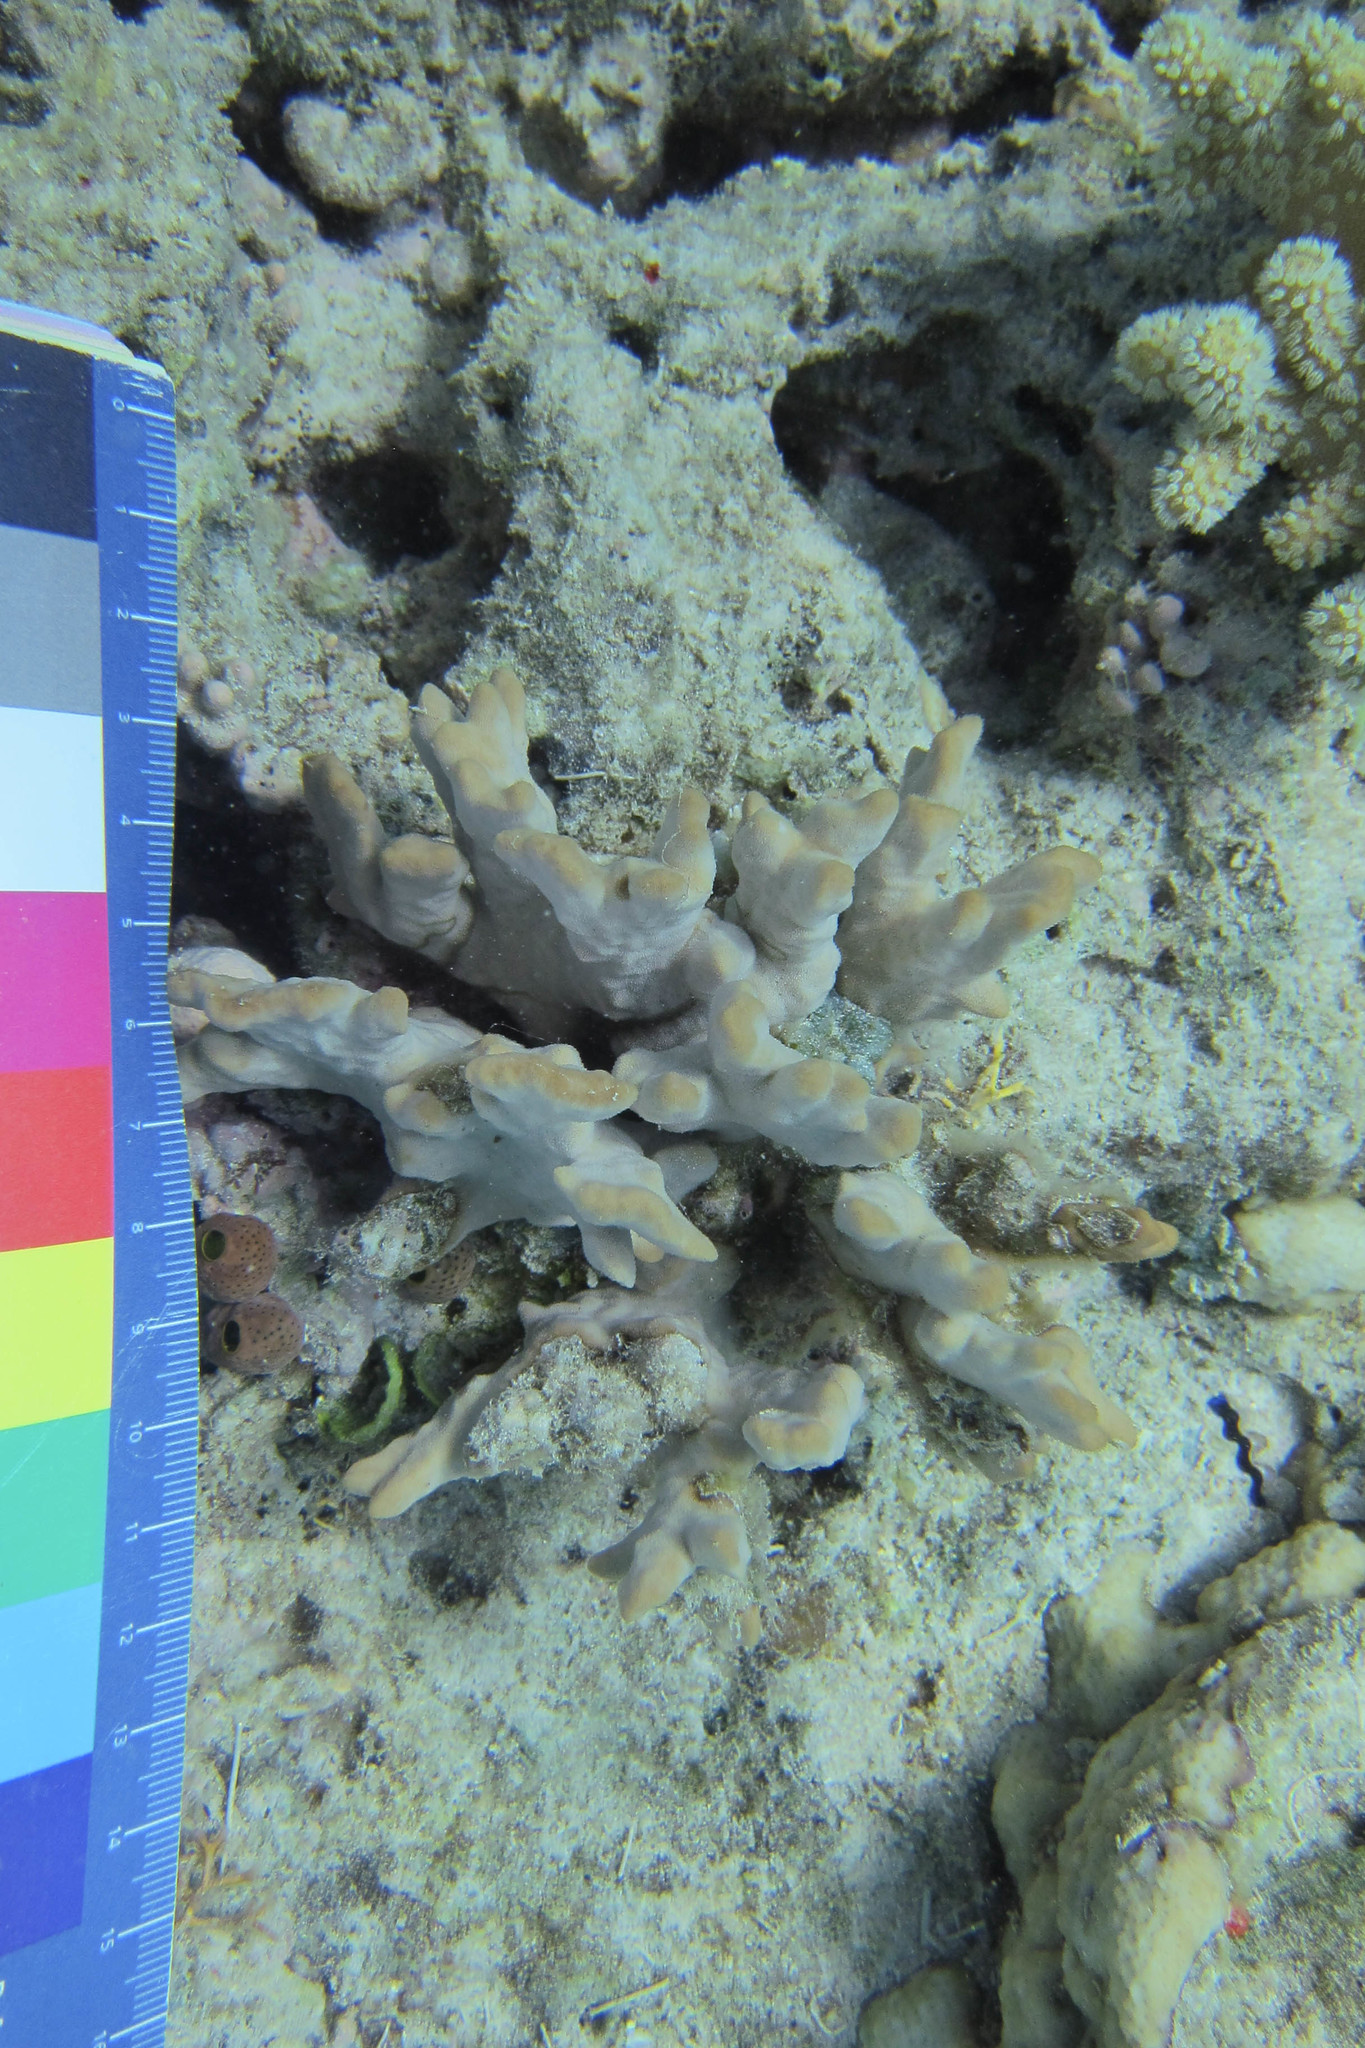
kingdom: Animalia
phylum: Cnidaria
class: Anthozoa
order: Scleractinia
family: Psammocoridae
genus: Psammocora
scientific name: Psammocora contigua
